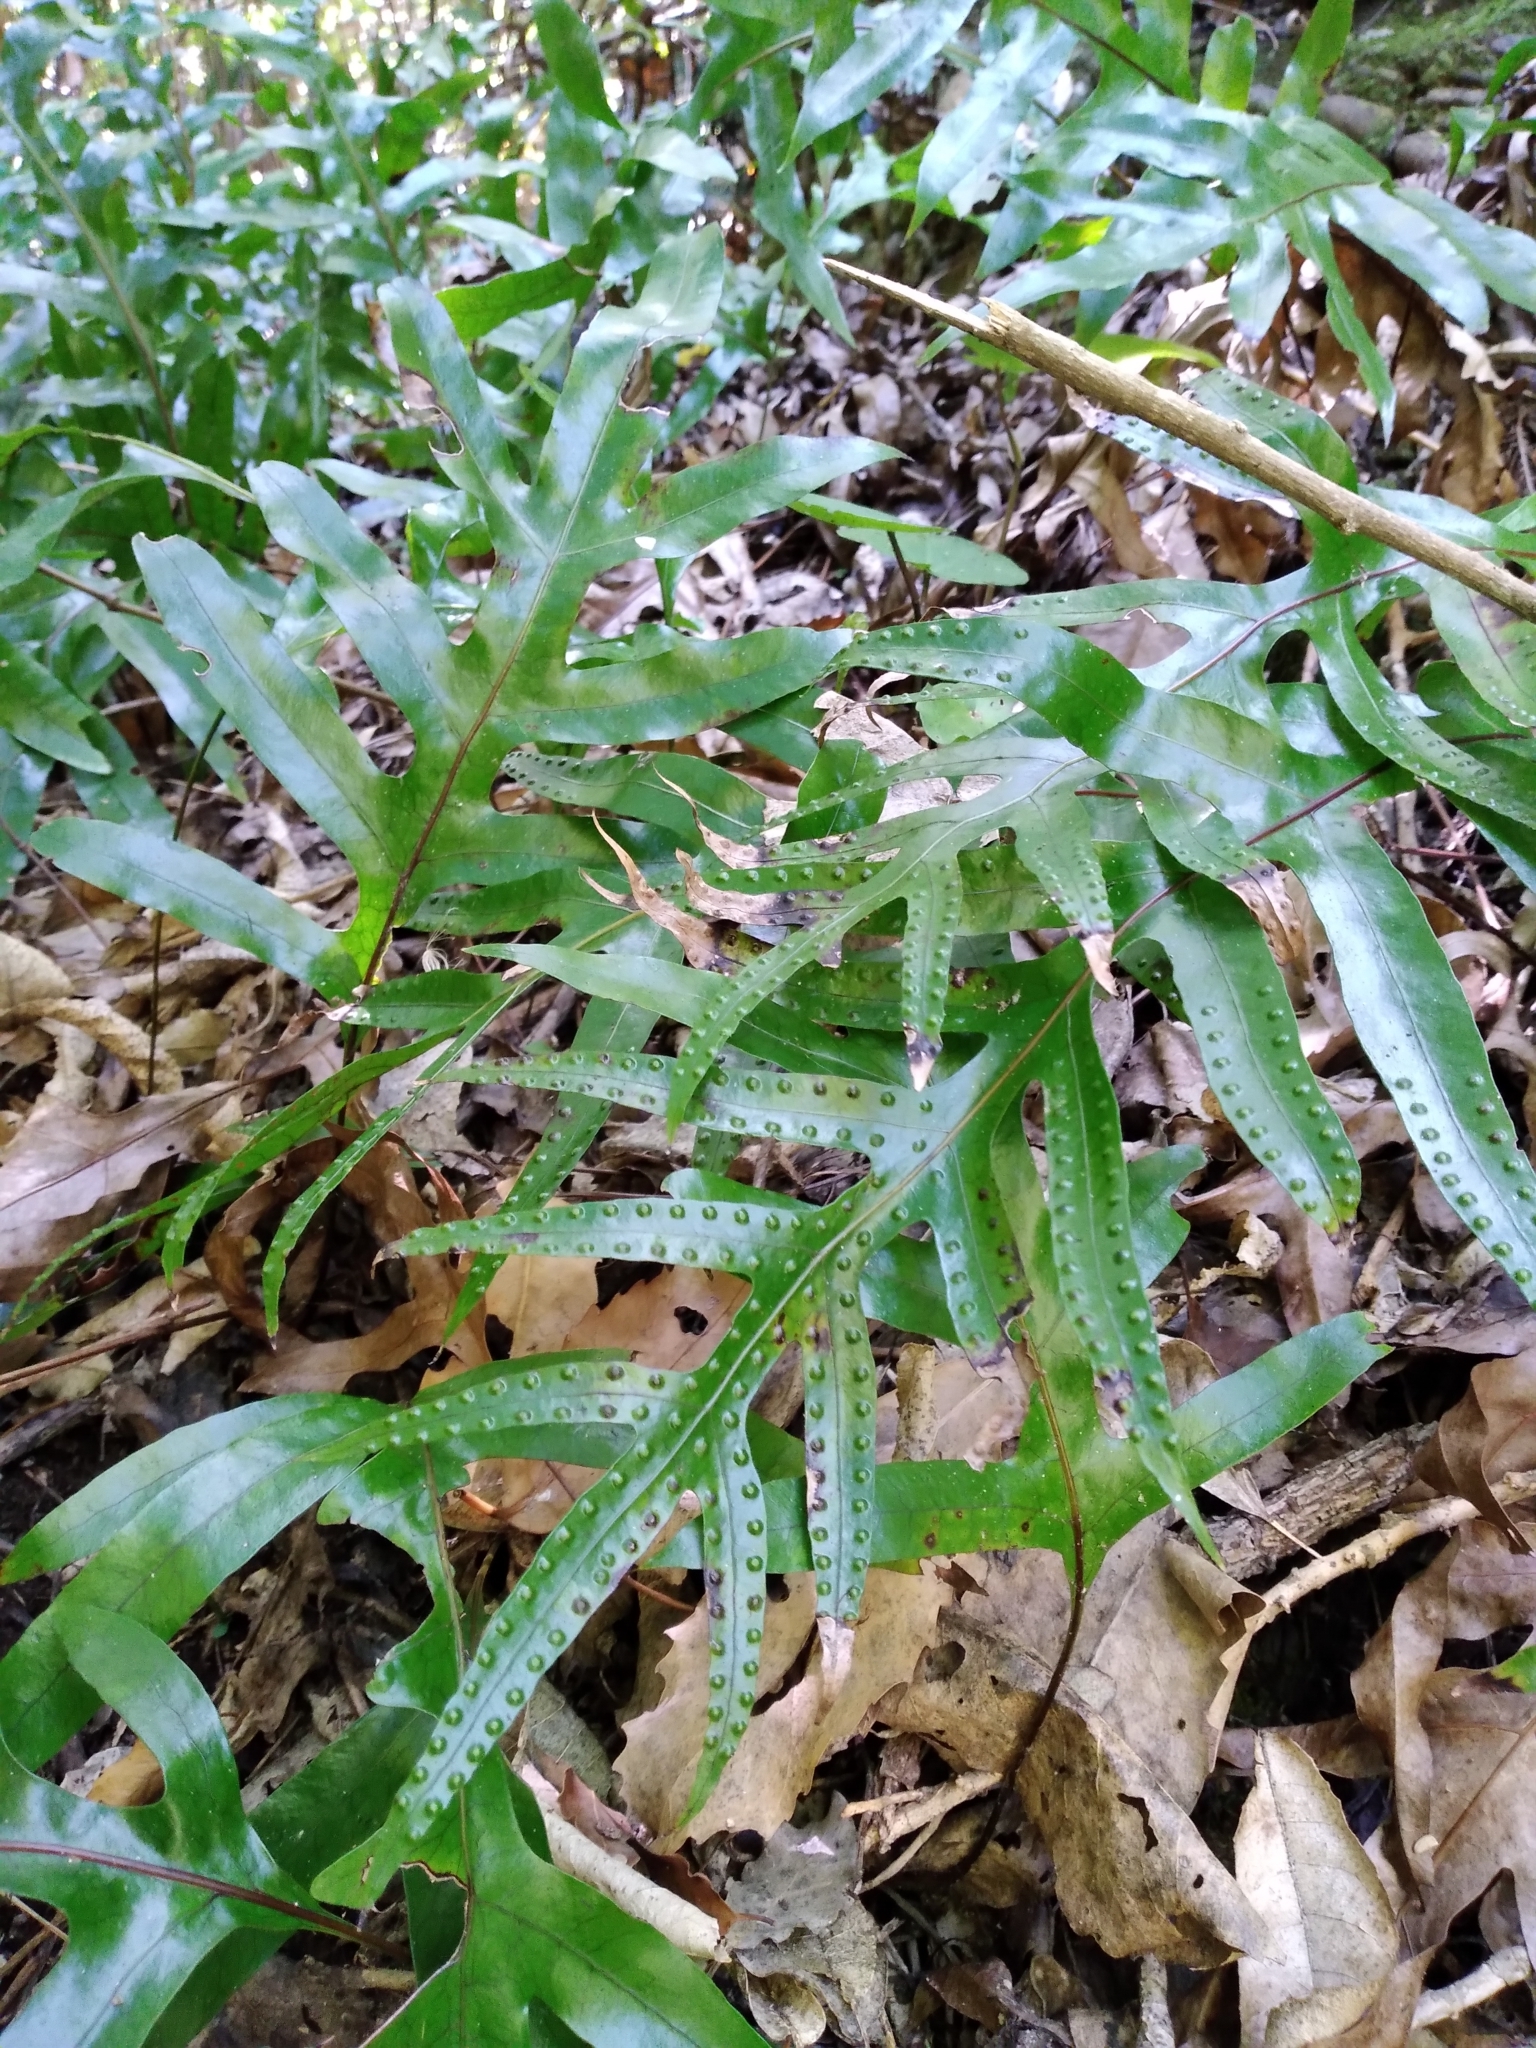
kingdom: Plantae
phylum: Tracheophyta
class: Polypodiopsida
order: Polypodiales
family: Polypodiaceae
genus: Lecanopteris
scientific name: Lecanopteris pustulata
